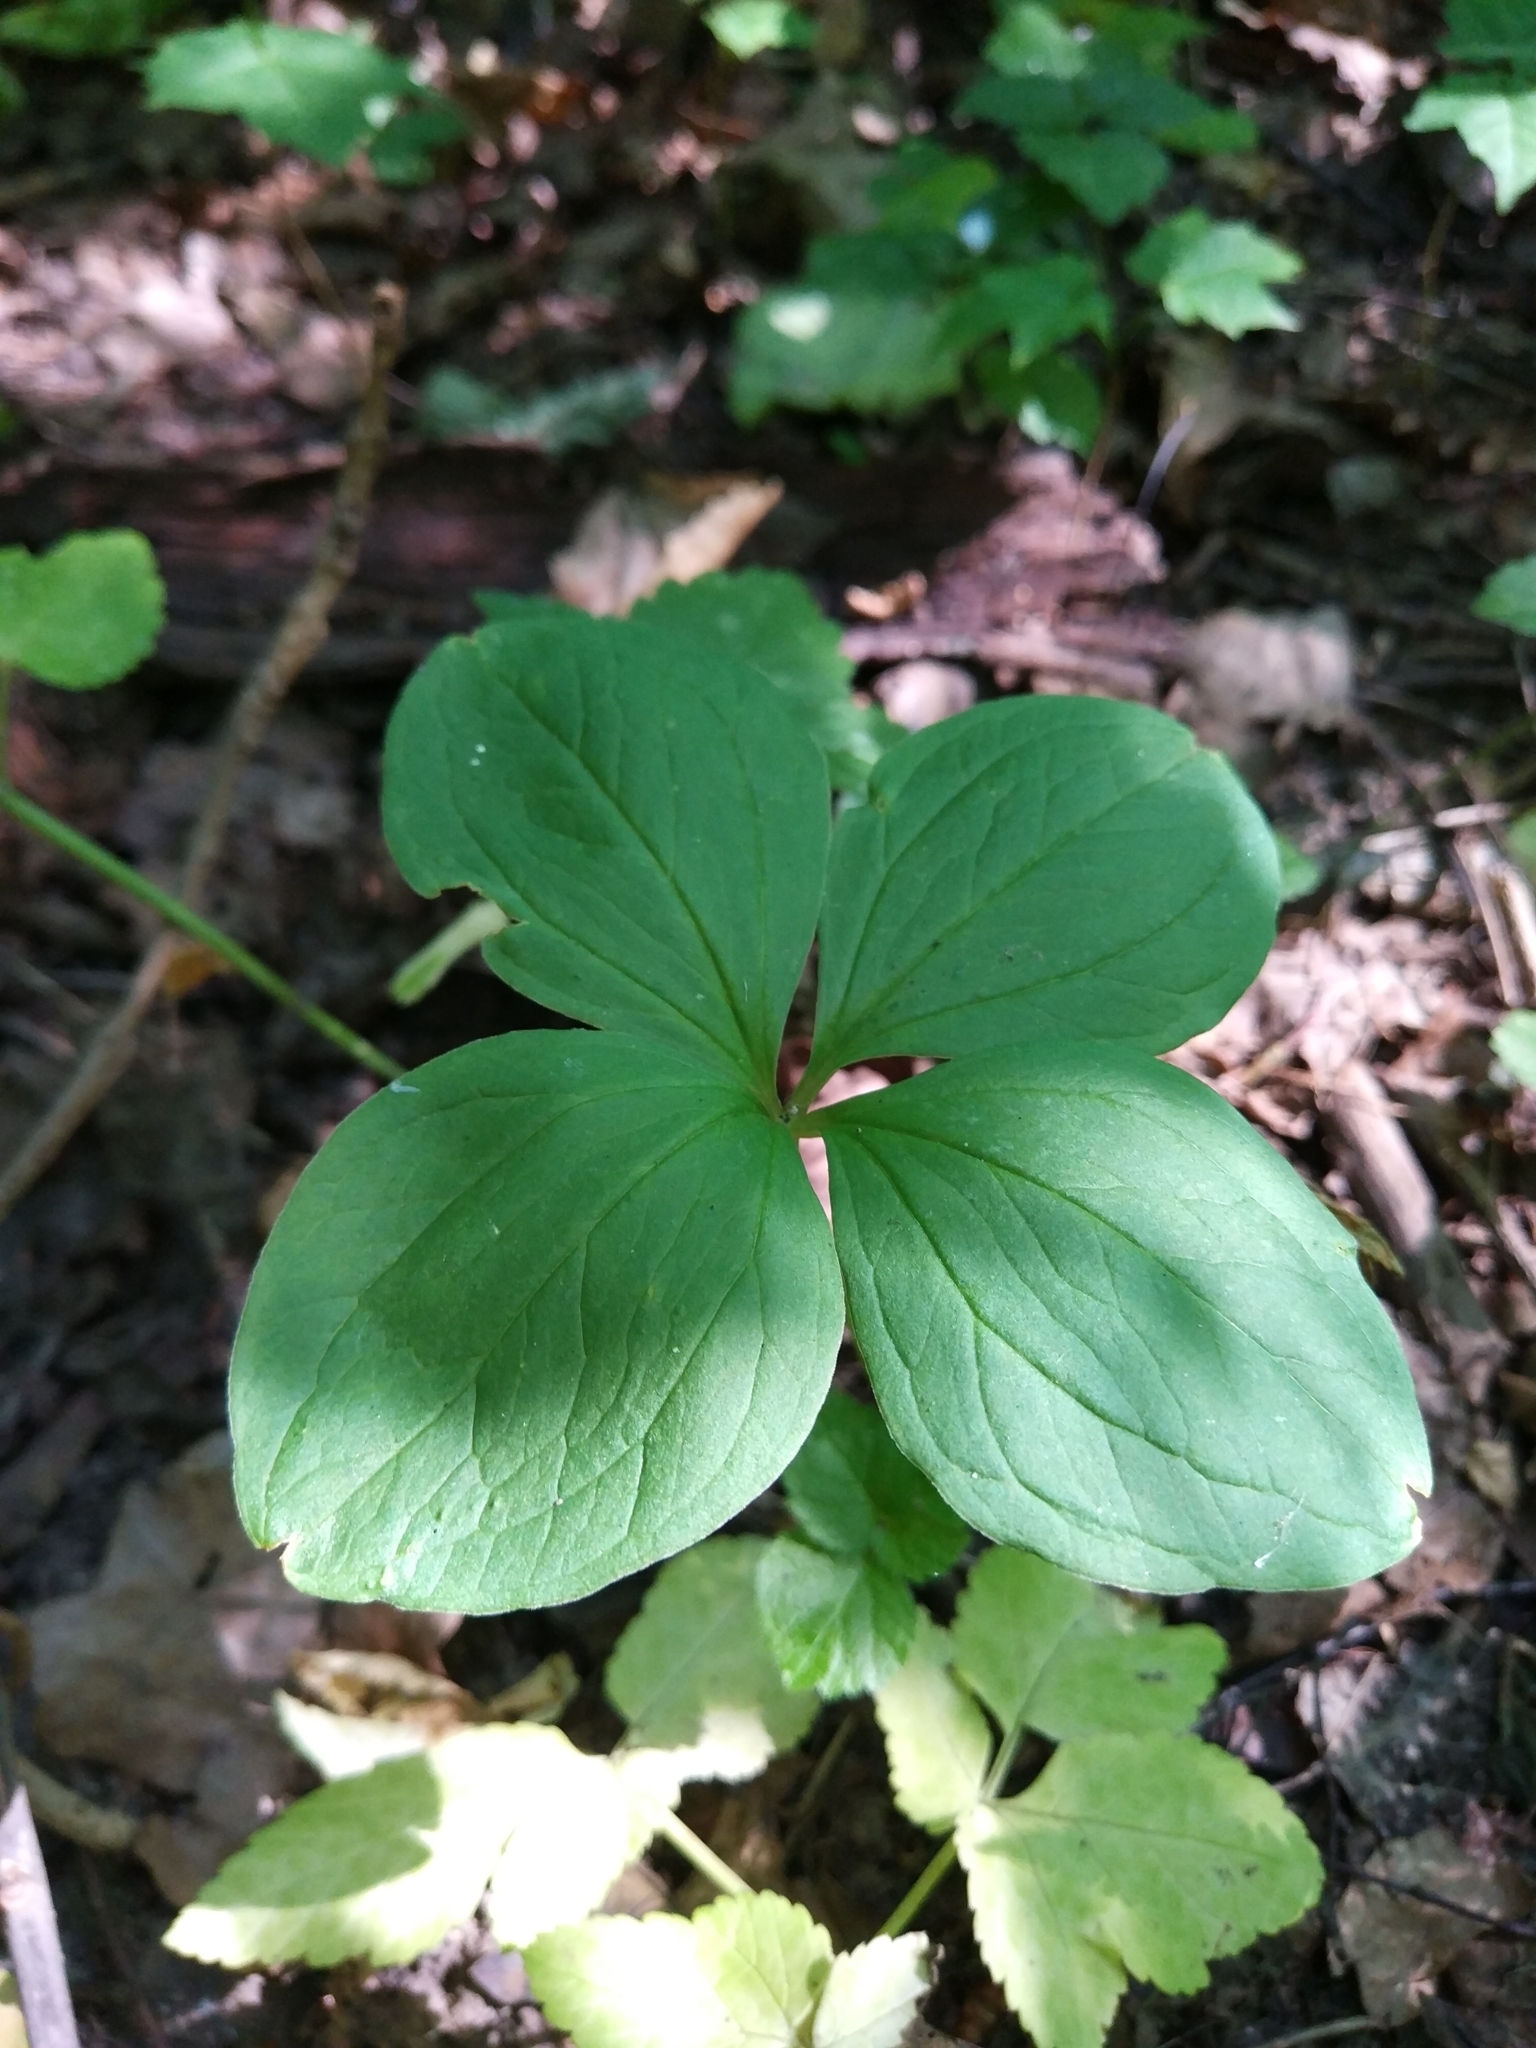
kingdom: Plantae
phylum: Tracheophyta
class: Liliopsida
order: Liliales
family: Melanthiaceae
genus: Paris
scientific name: Paris quadrifolia
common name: Herb-paris
